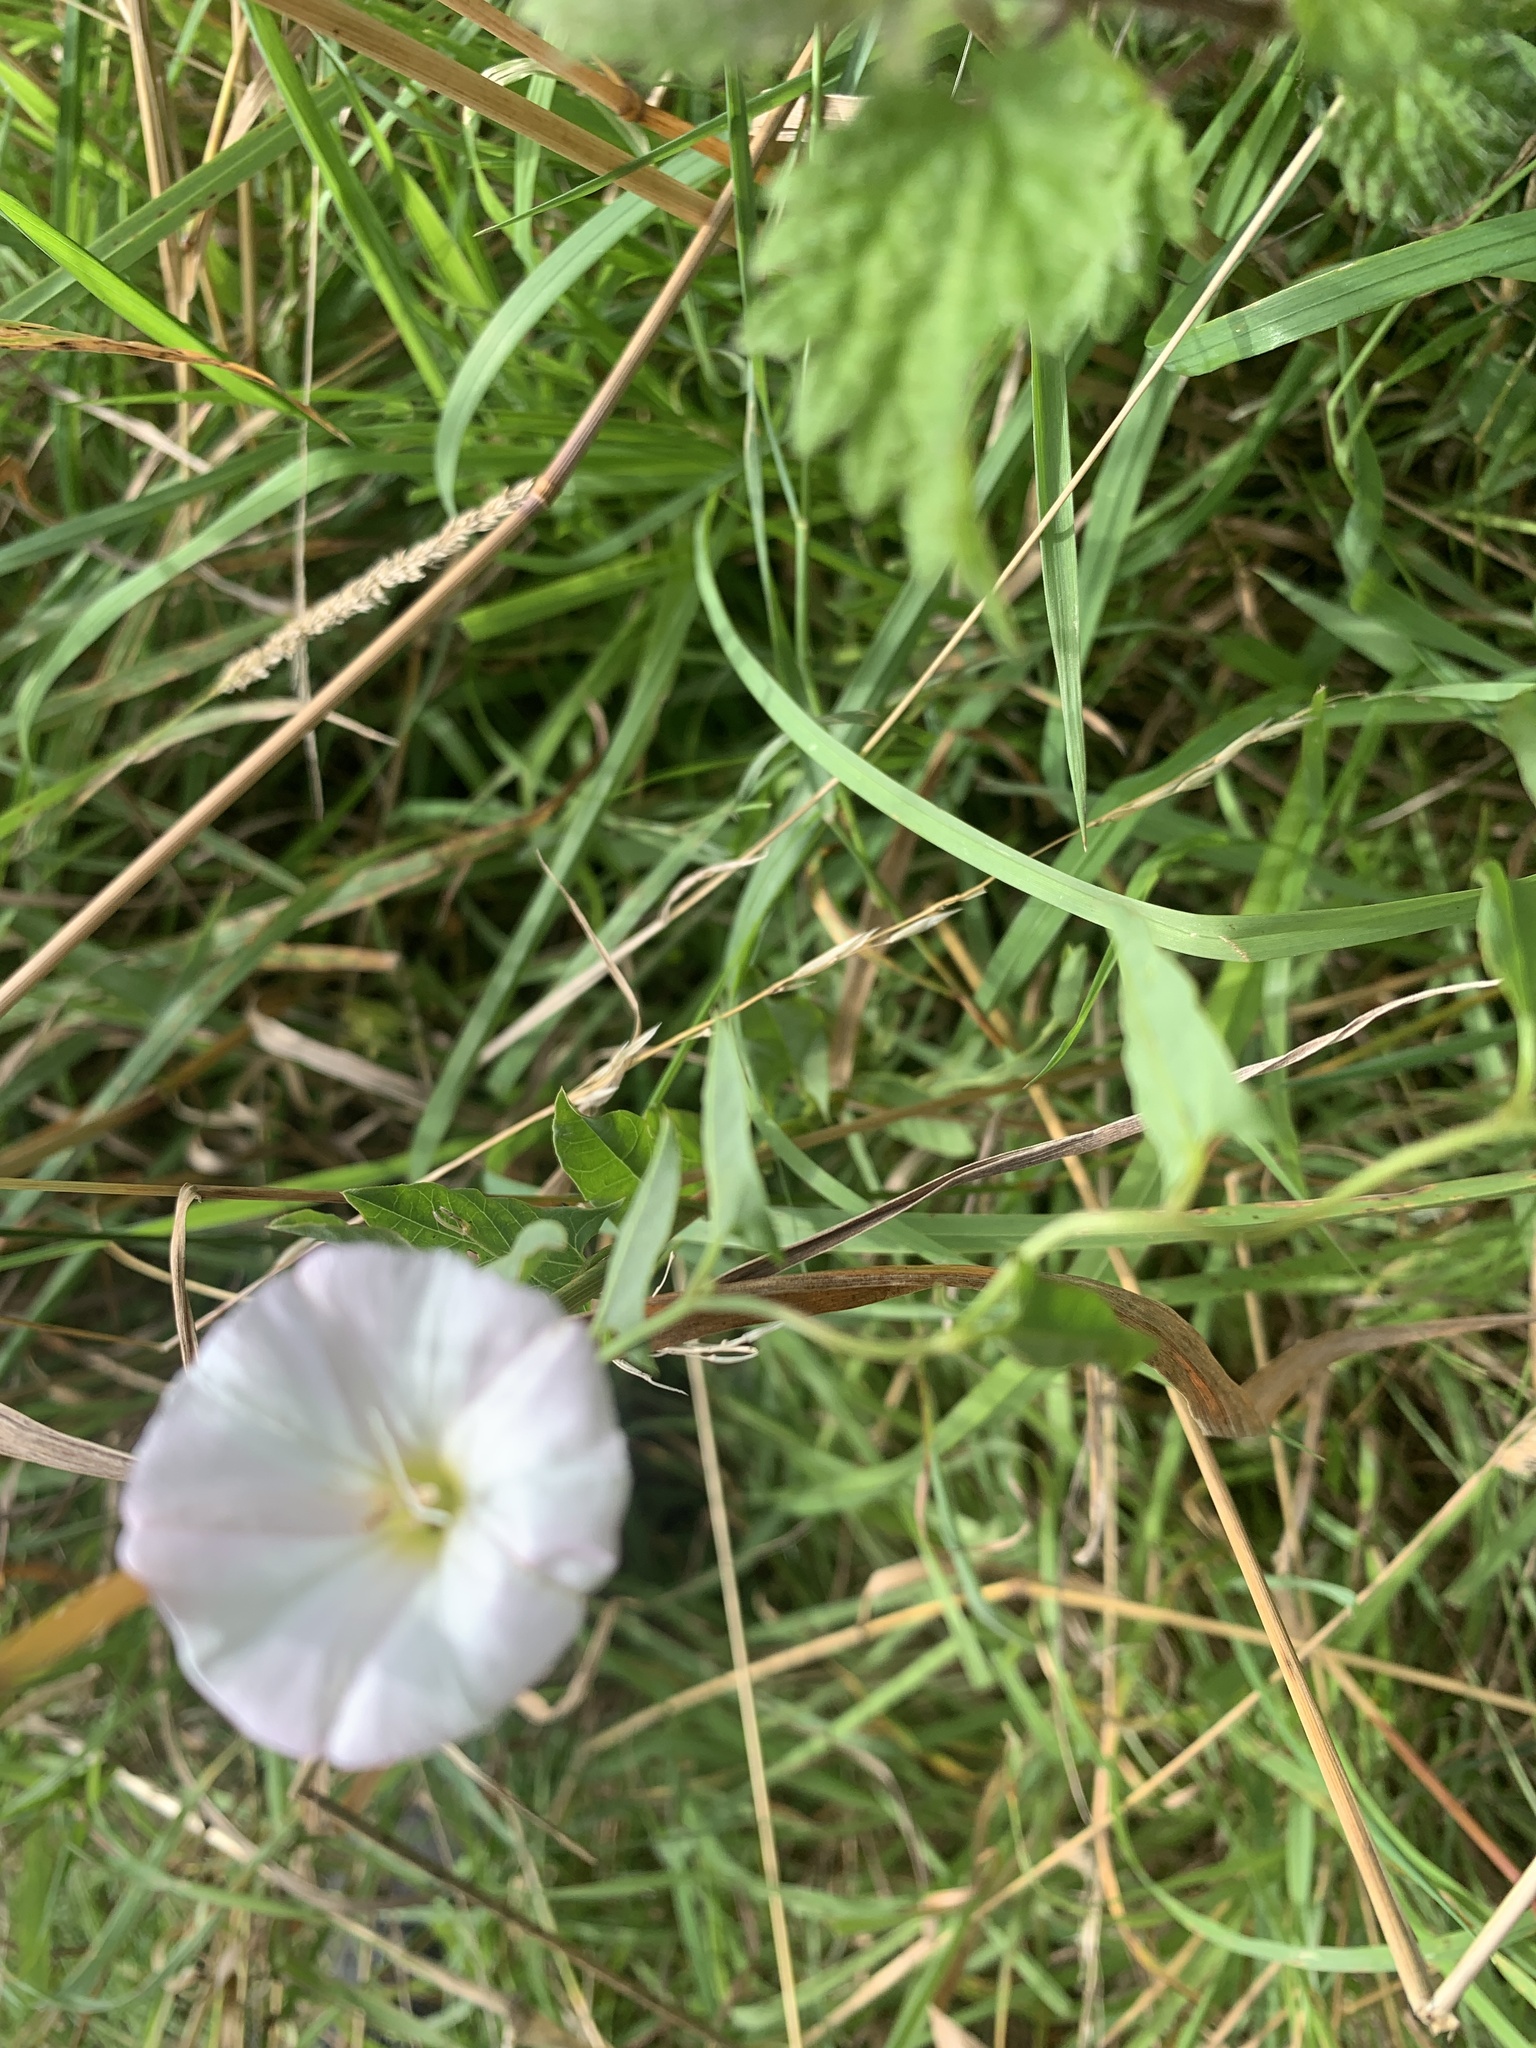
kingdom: Plantae
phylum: Tracheophyta
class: Magnoliopsida
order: Solanales
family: Convolvulaceae
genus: Convolvulus
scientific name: Convolvulus arvensis
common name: Field bindweed
